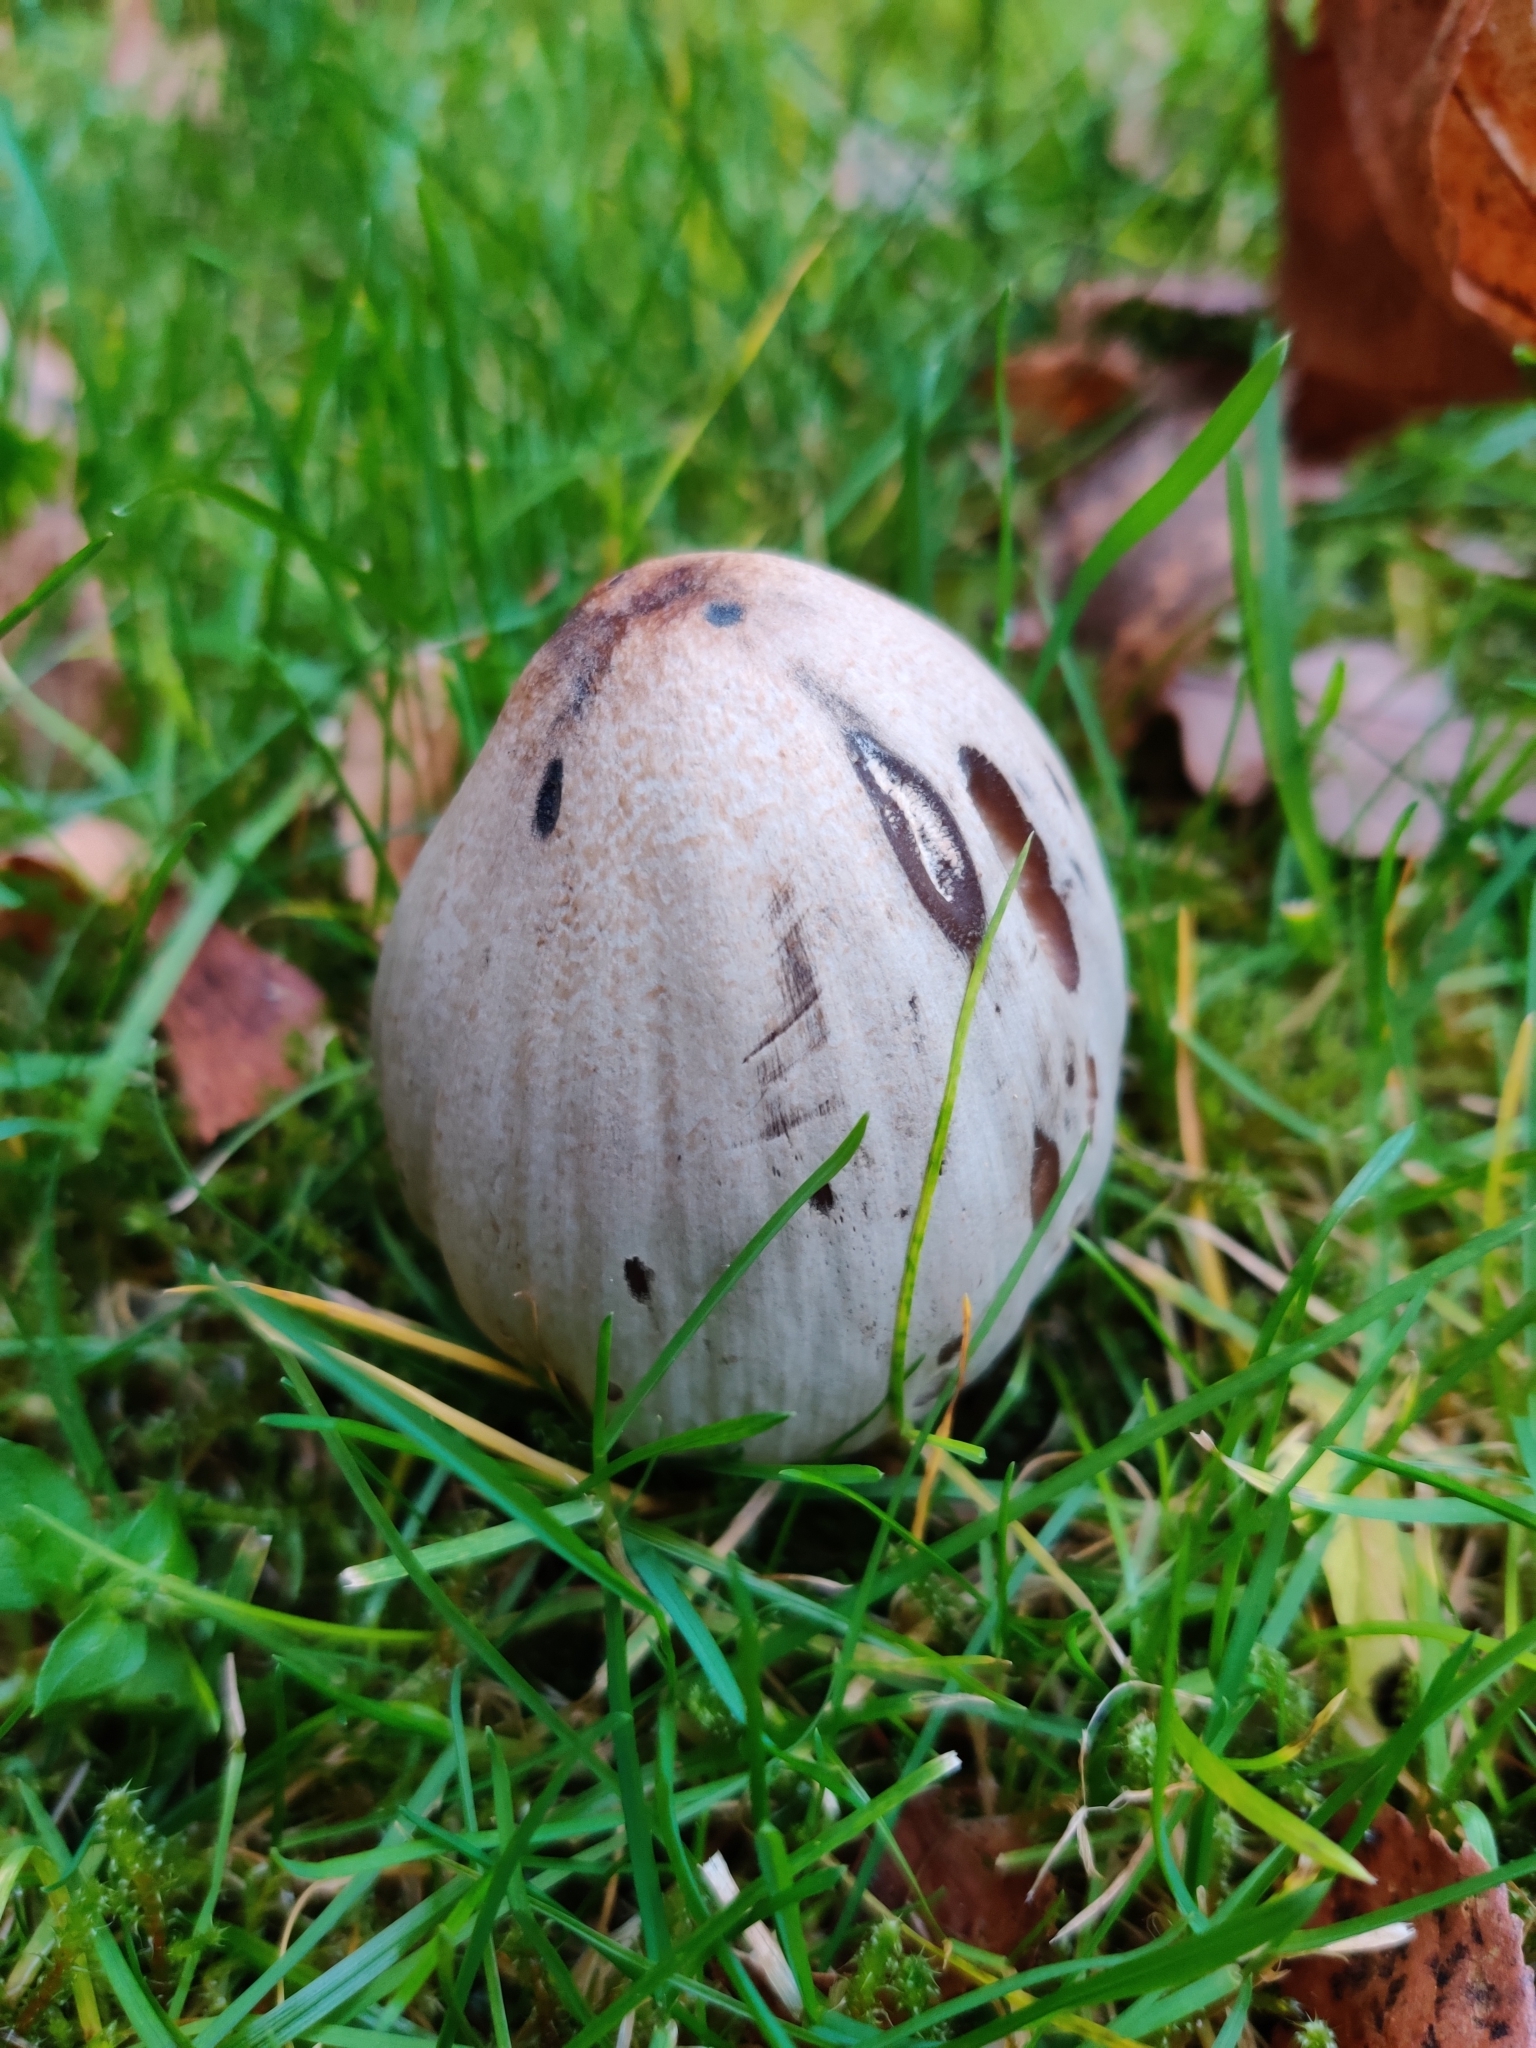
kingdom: Fungi
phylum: Basidiomycota
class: Agaricomycetes
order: Agaricales
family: Psathyrellaceae
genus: Coprinopsis
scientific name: Coprinopsis atramentaria
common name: Common ink-cap
